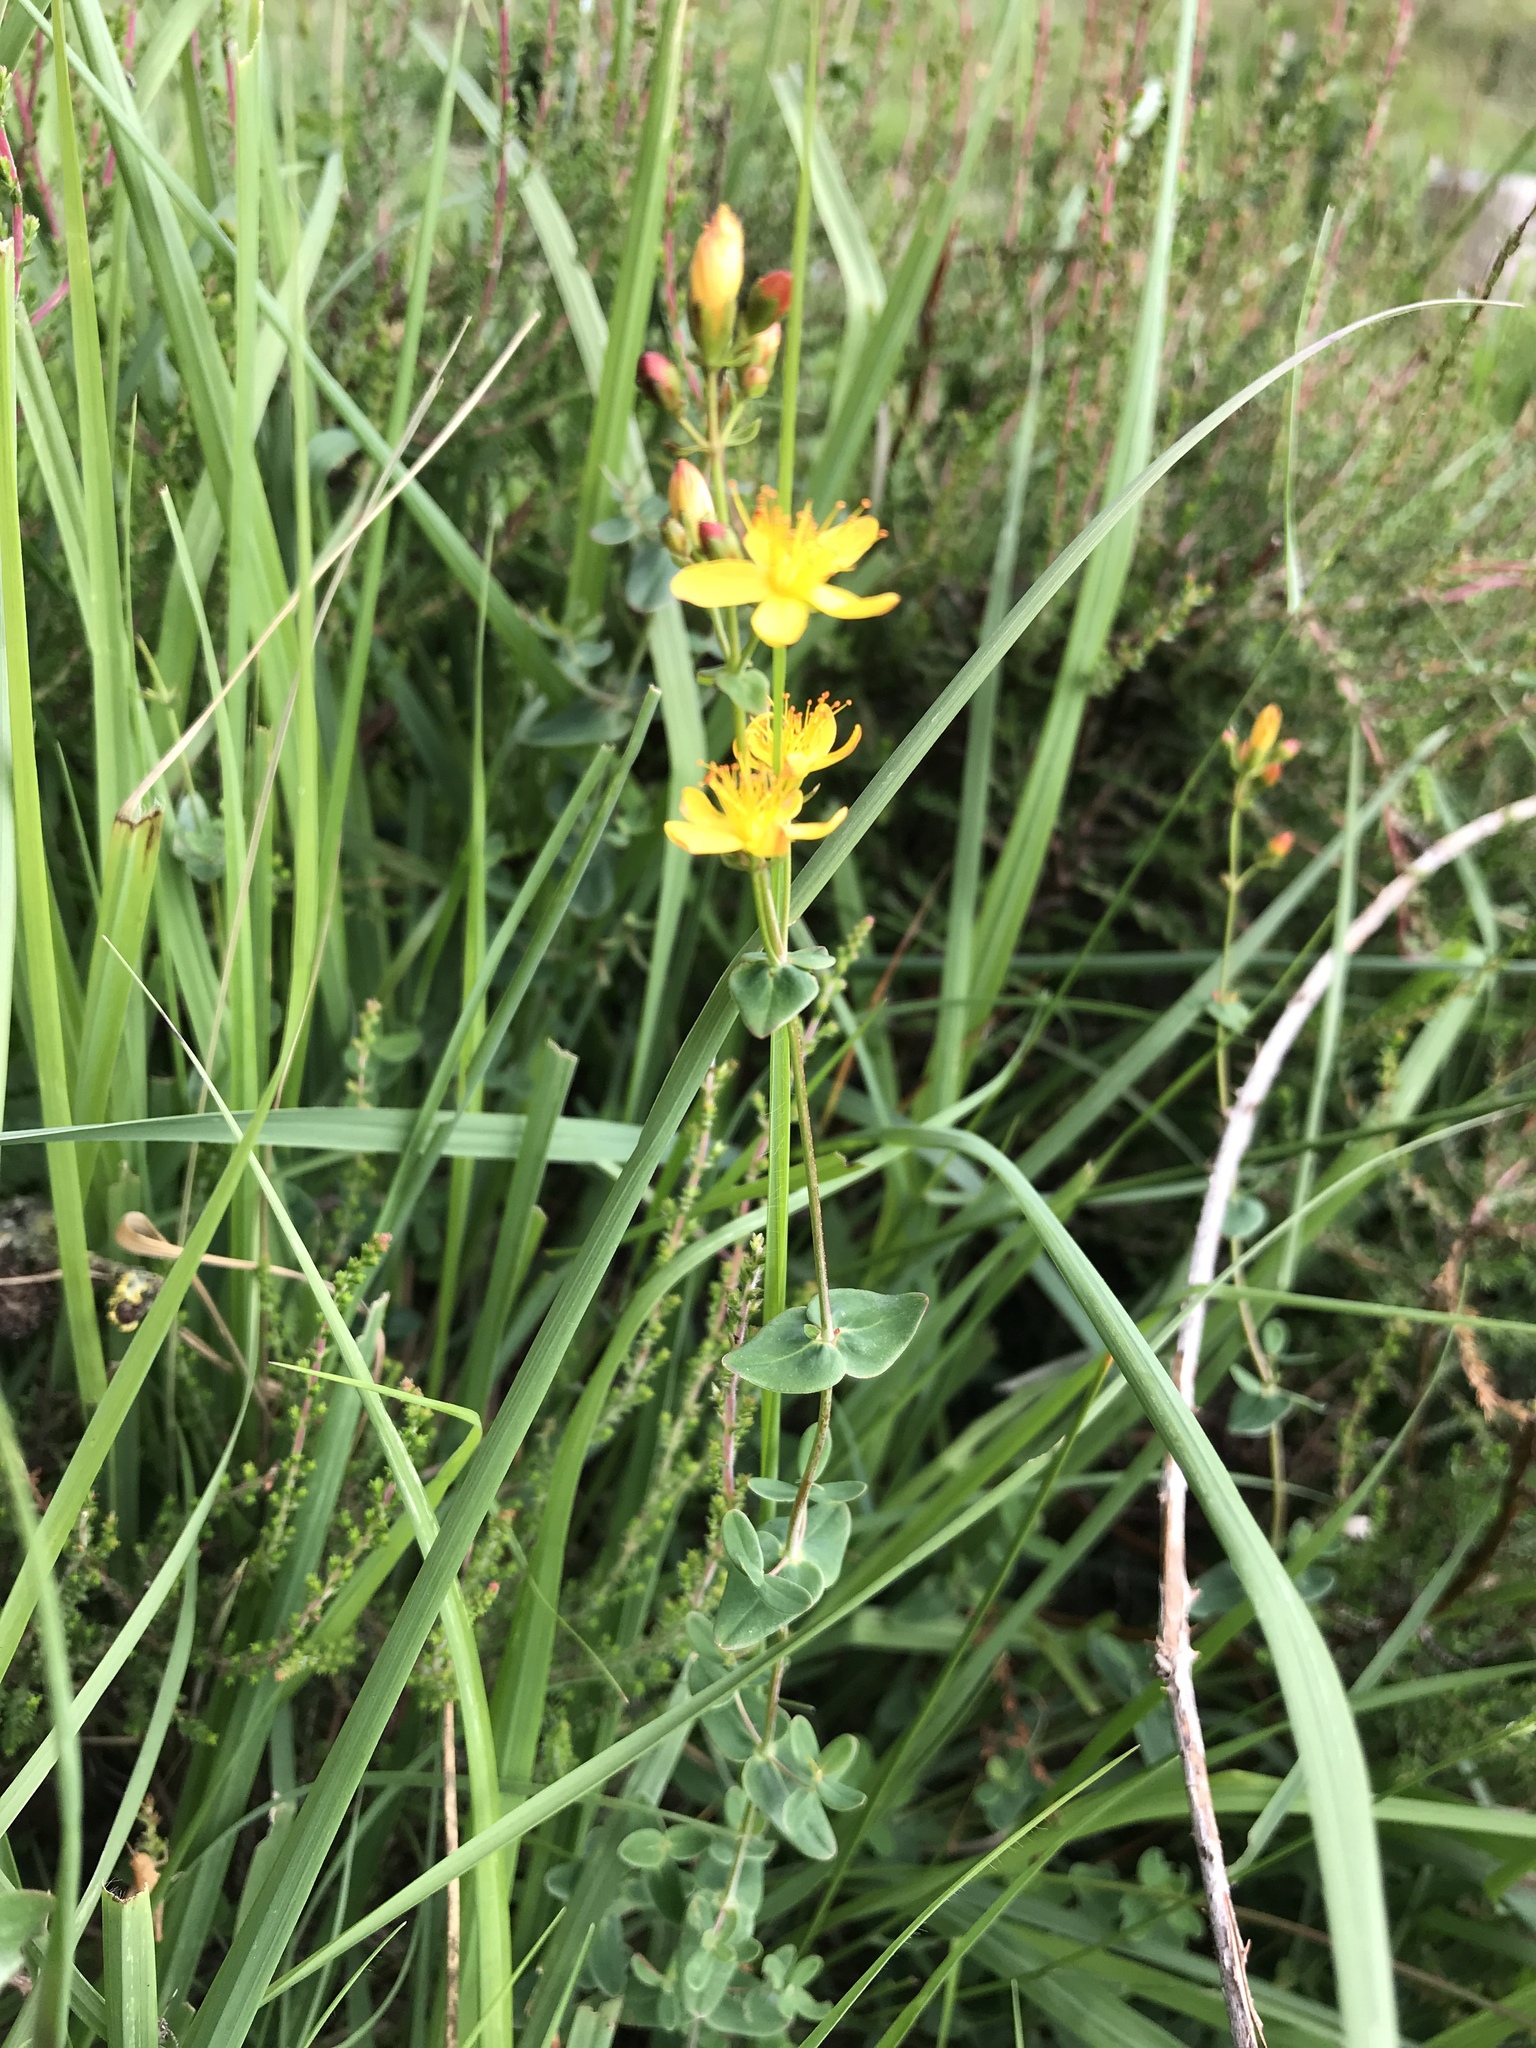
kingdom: Plantae
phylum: Tracheophyta
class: Magnoliopsida
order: Malpighiales
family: Hypericaceae
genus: Hypericum
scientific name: Hypericum pulchrum
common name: Slender st. john's-wort
